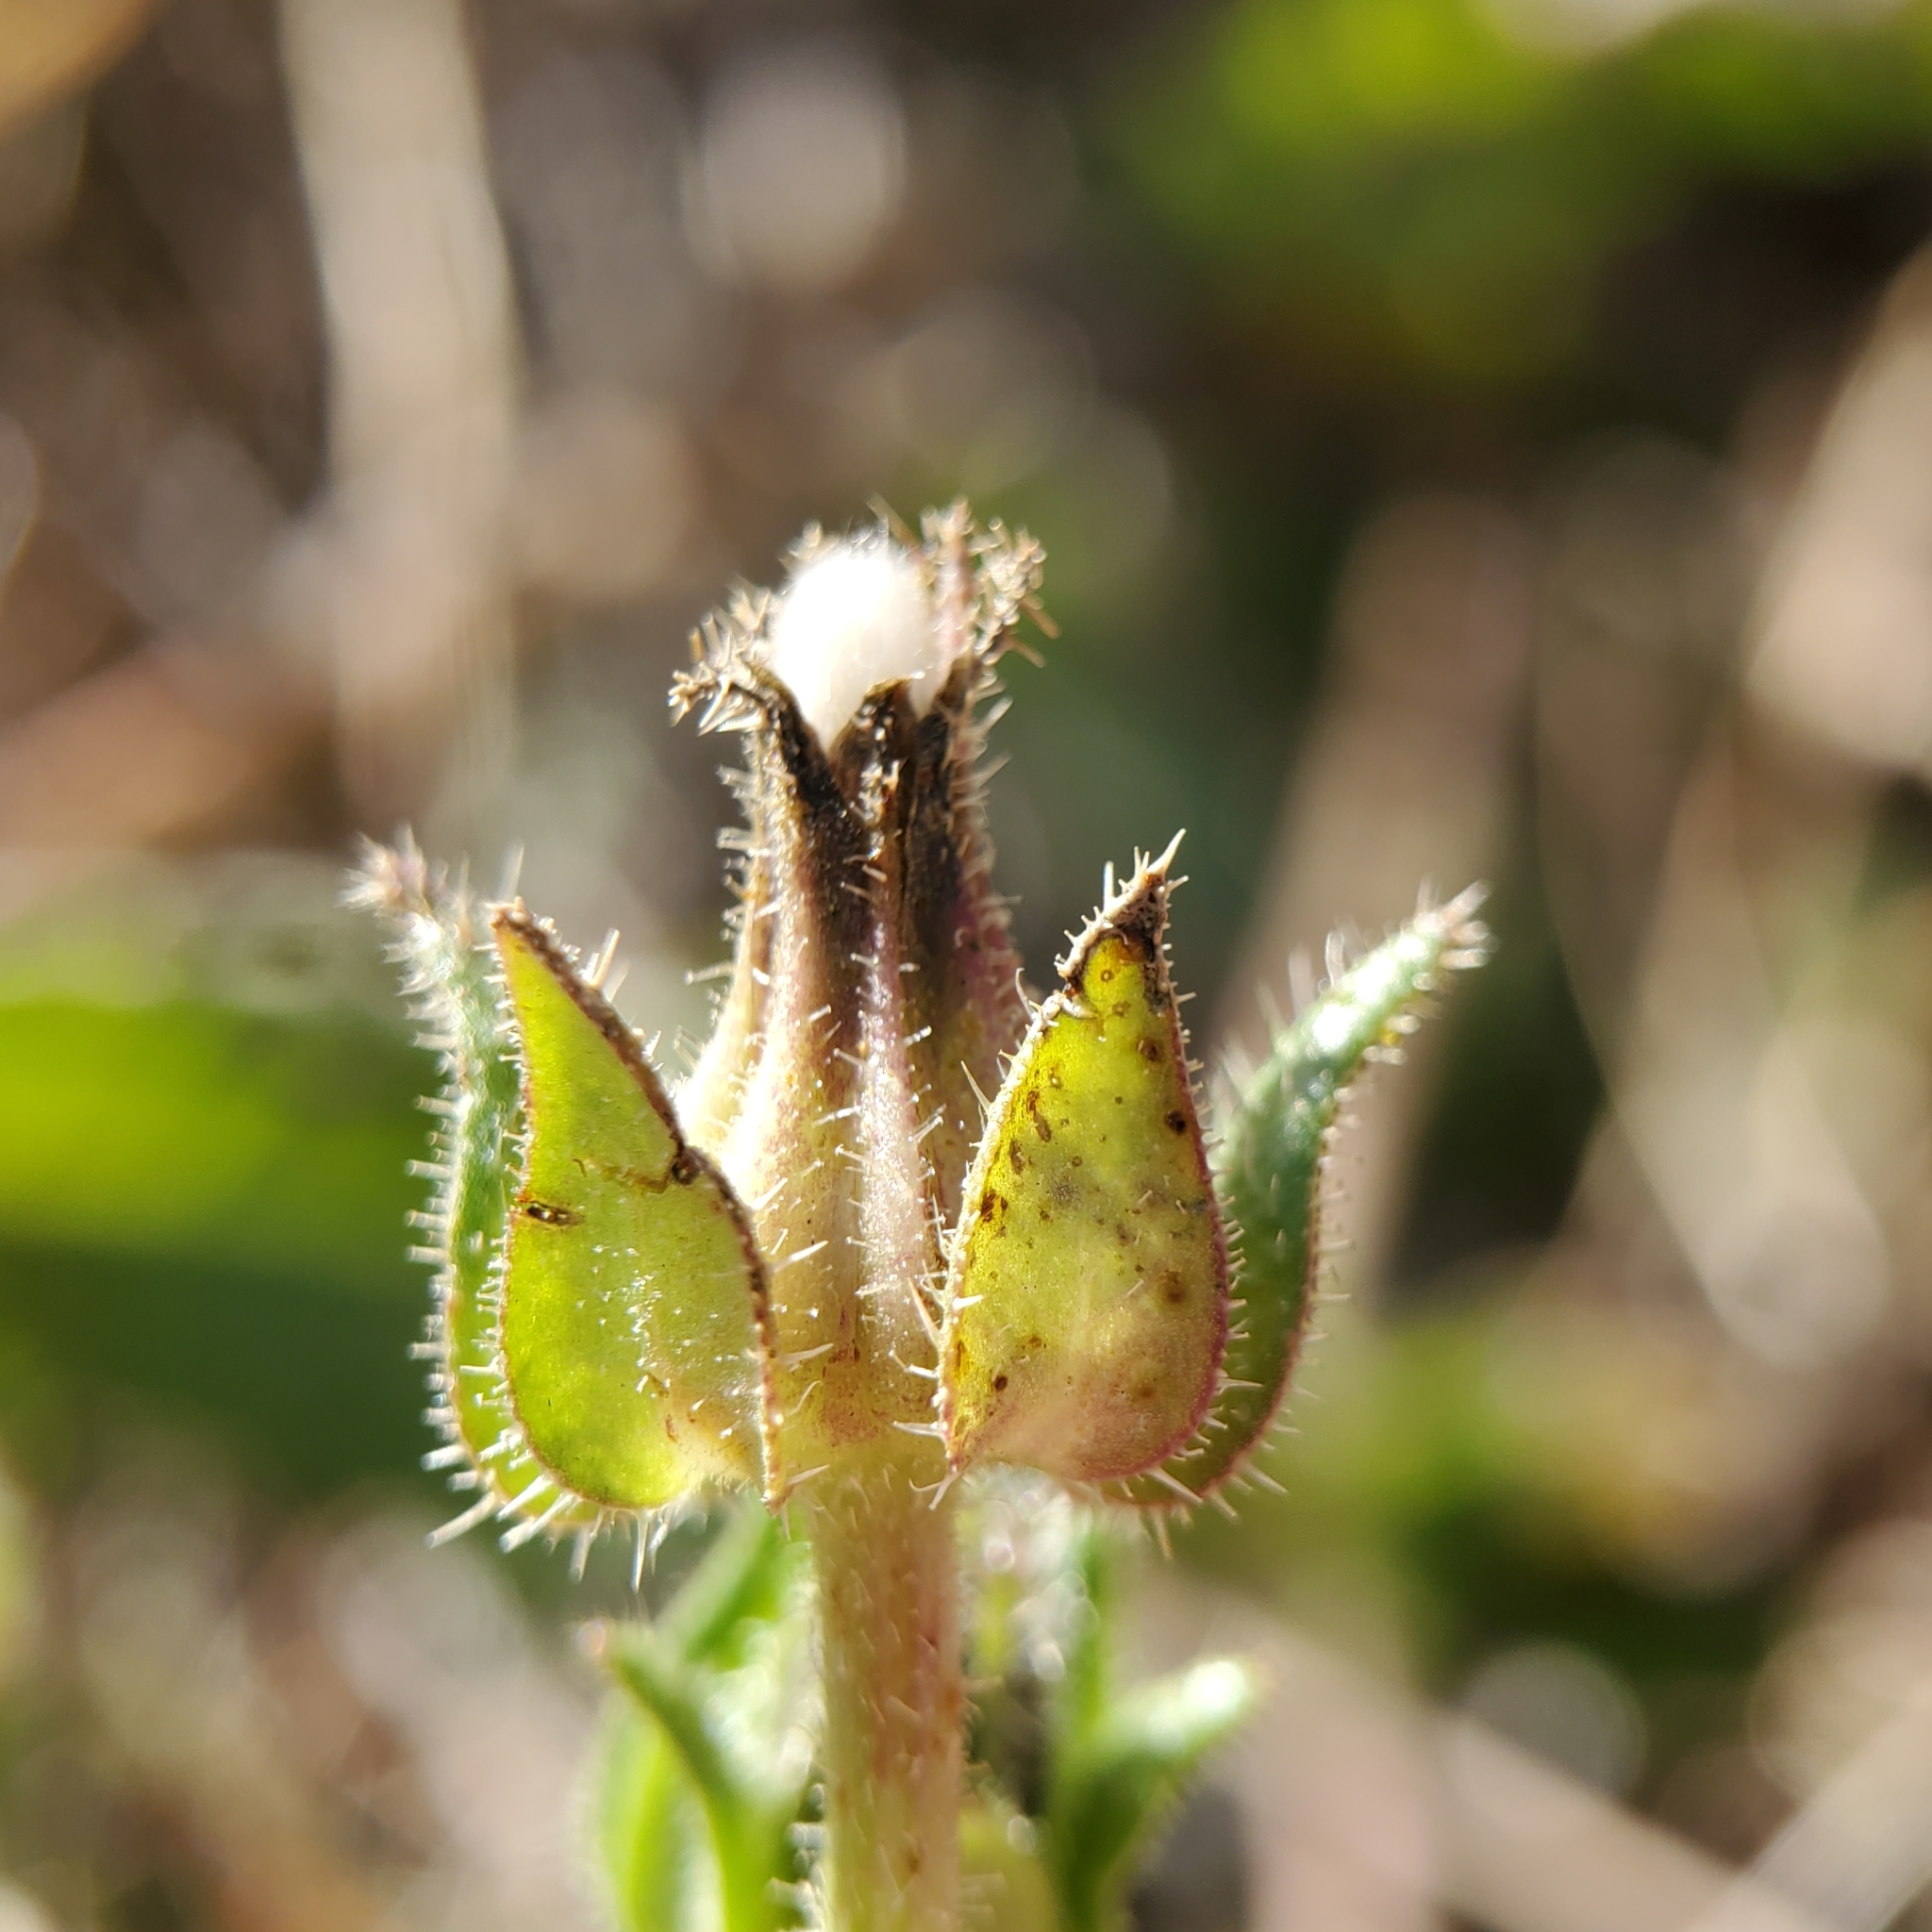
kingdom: Plantae
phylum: Tracheophyta
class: Magnoliopsida
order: Asterales
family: Asteraceae
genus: Helminthotheca
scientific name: Helminthotheca echioides
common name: Ox-tongue
